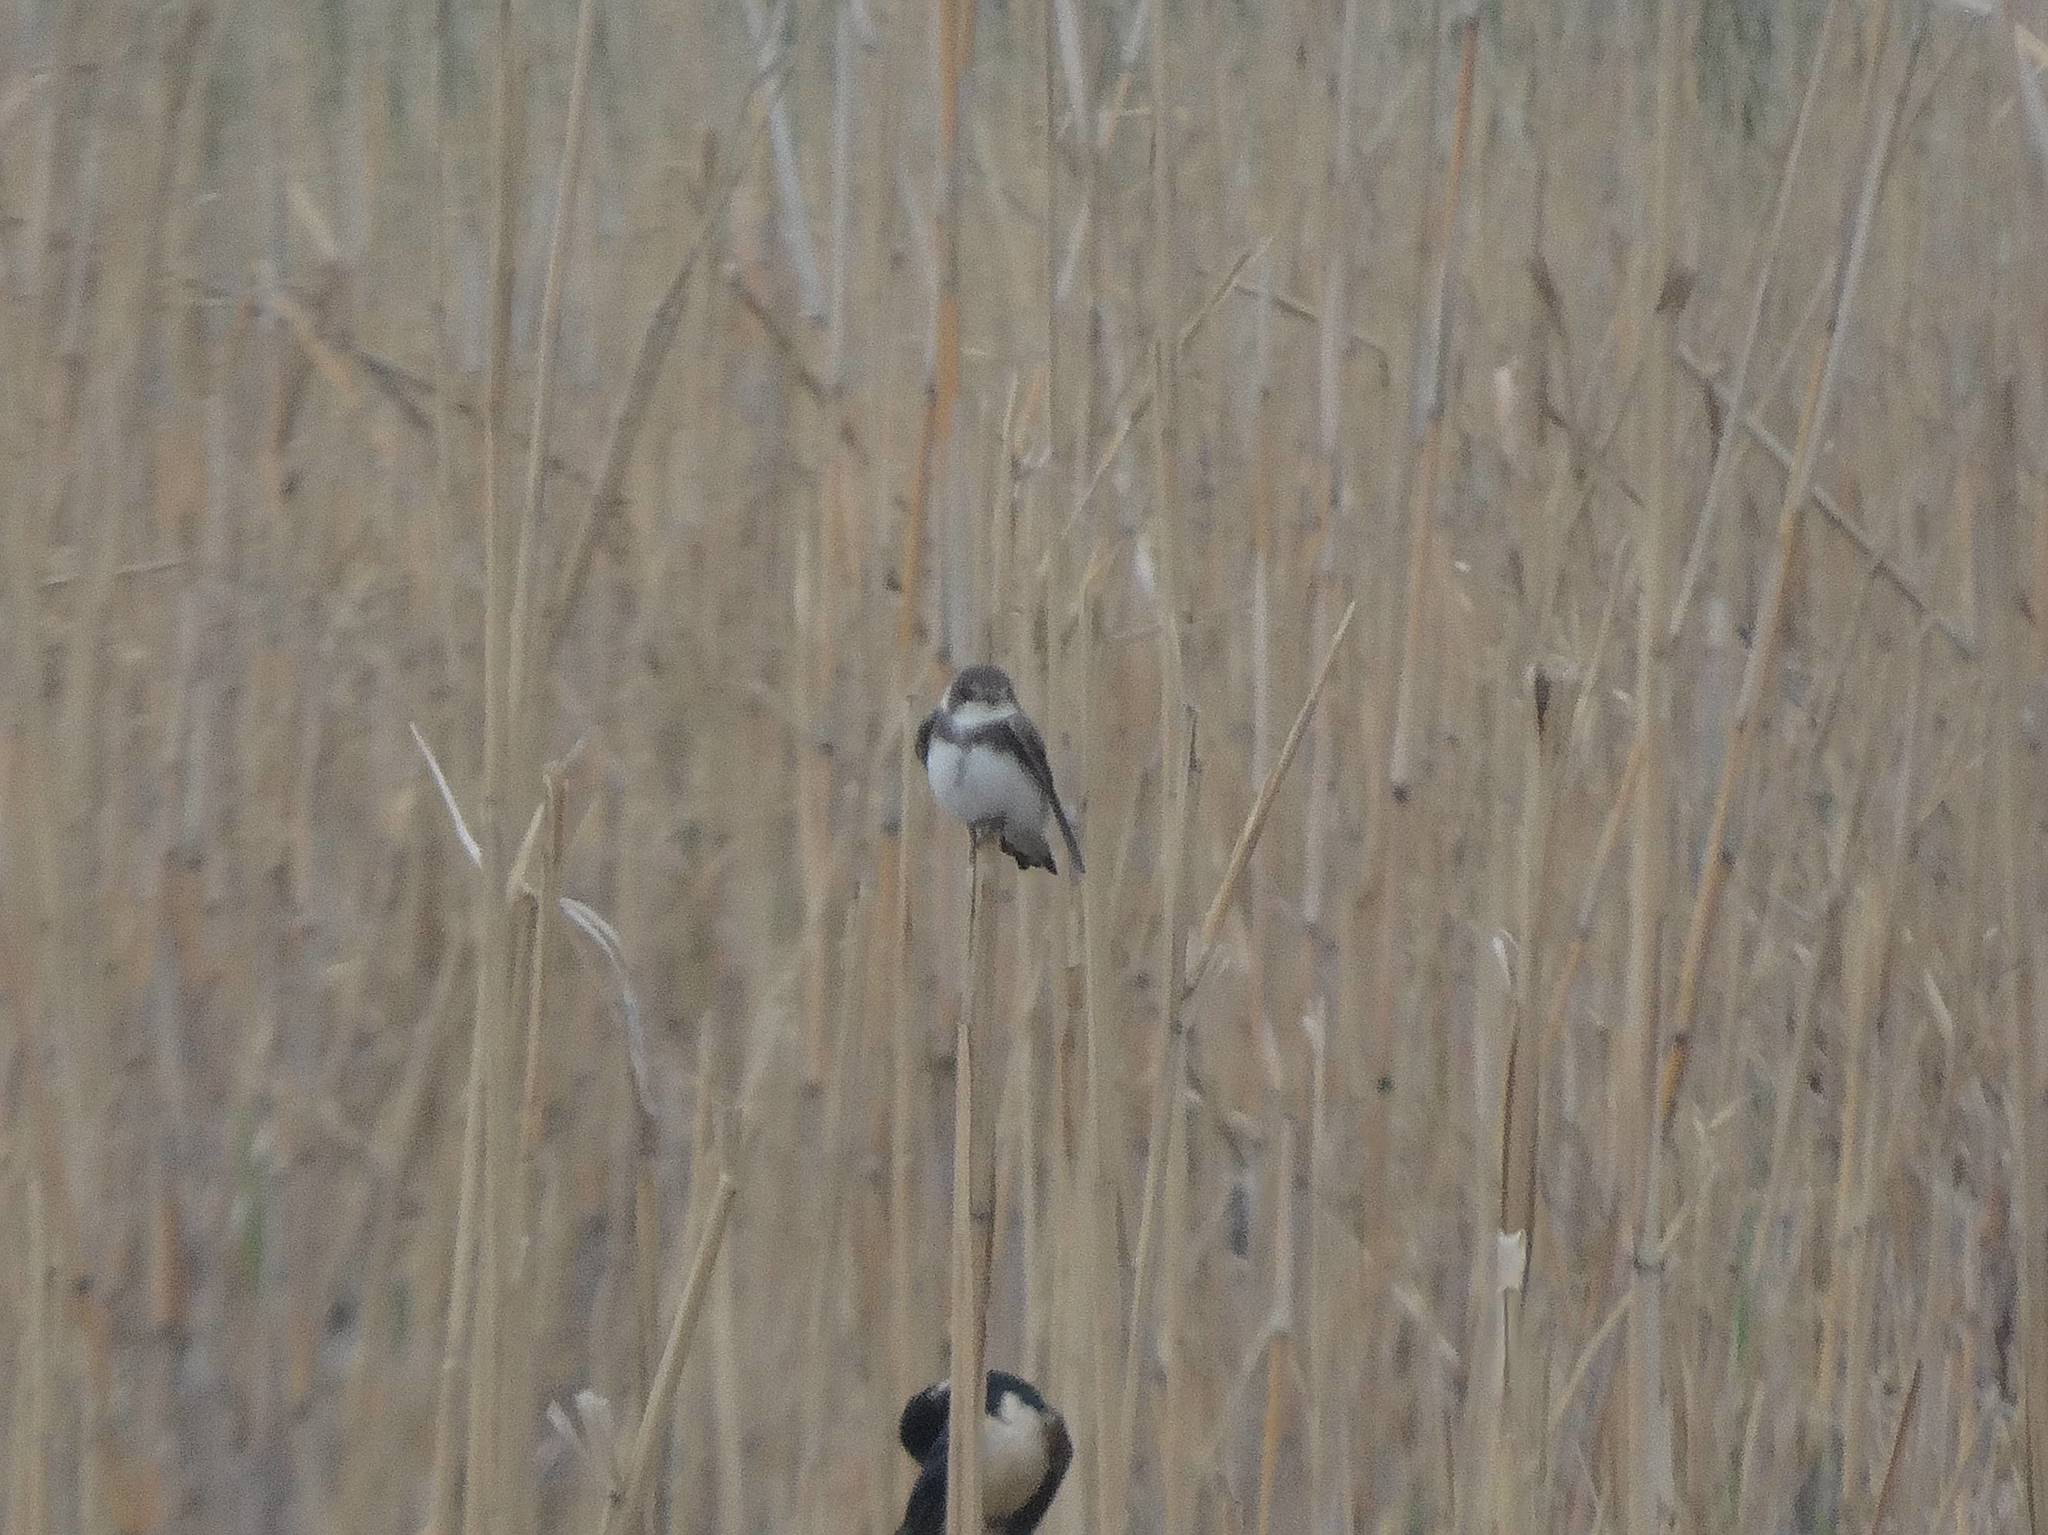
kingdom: Animalia
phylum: Chordata
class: Aves
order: Passeriformes
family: Hirundinidae
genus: Riparia
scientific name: Riparia riparia
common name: Sand martin
